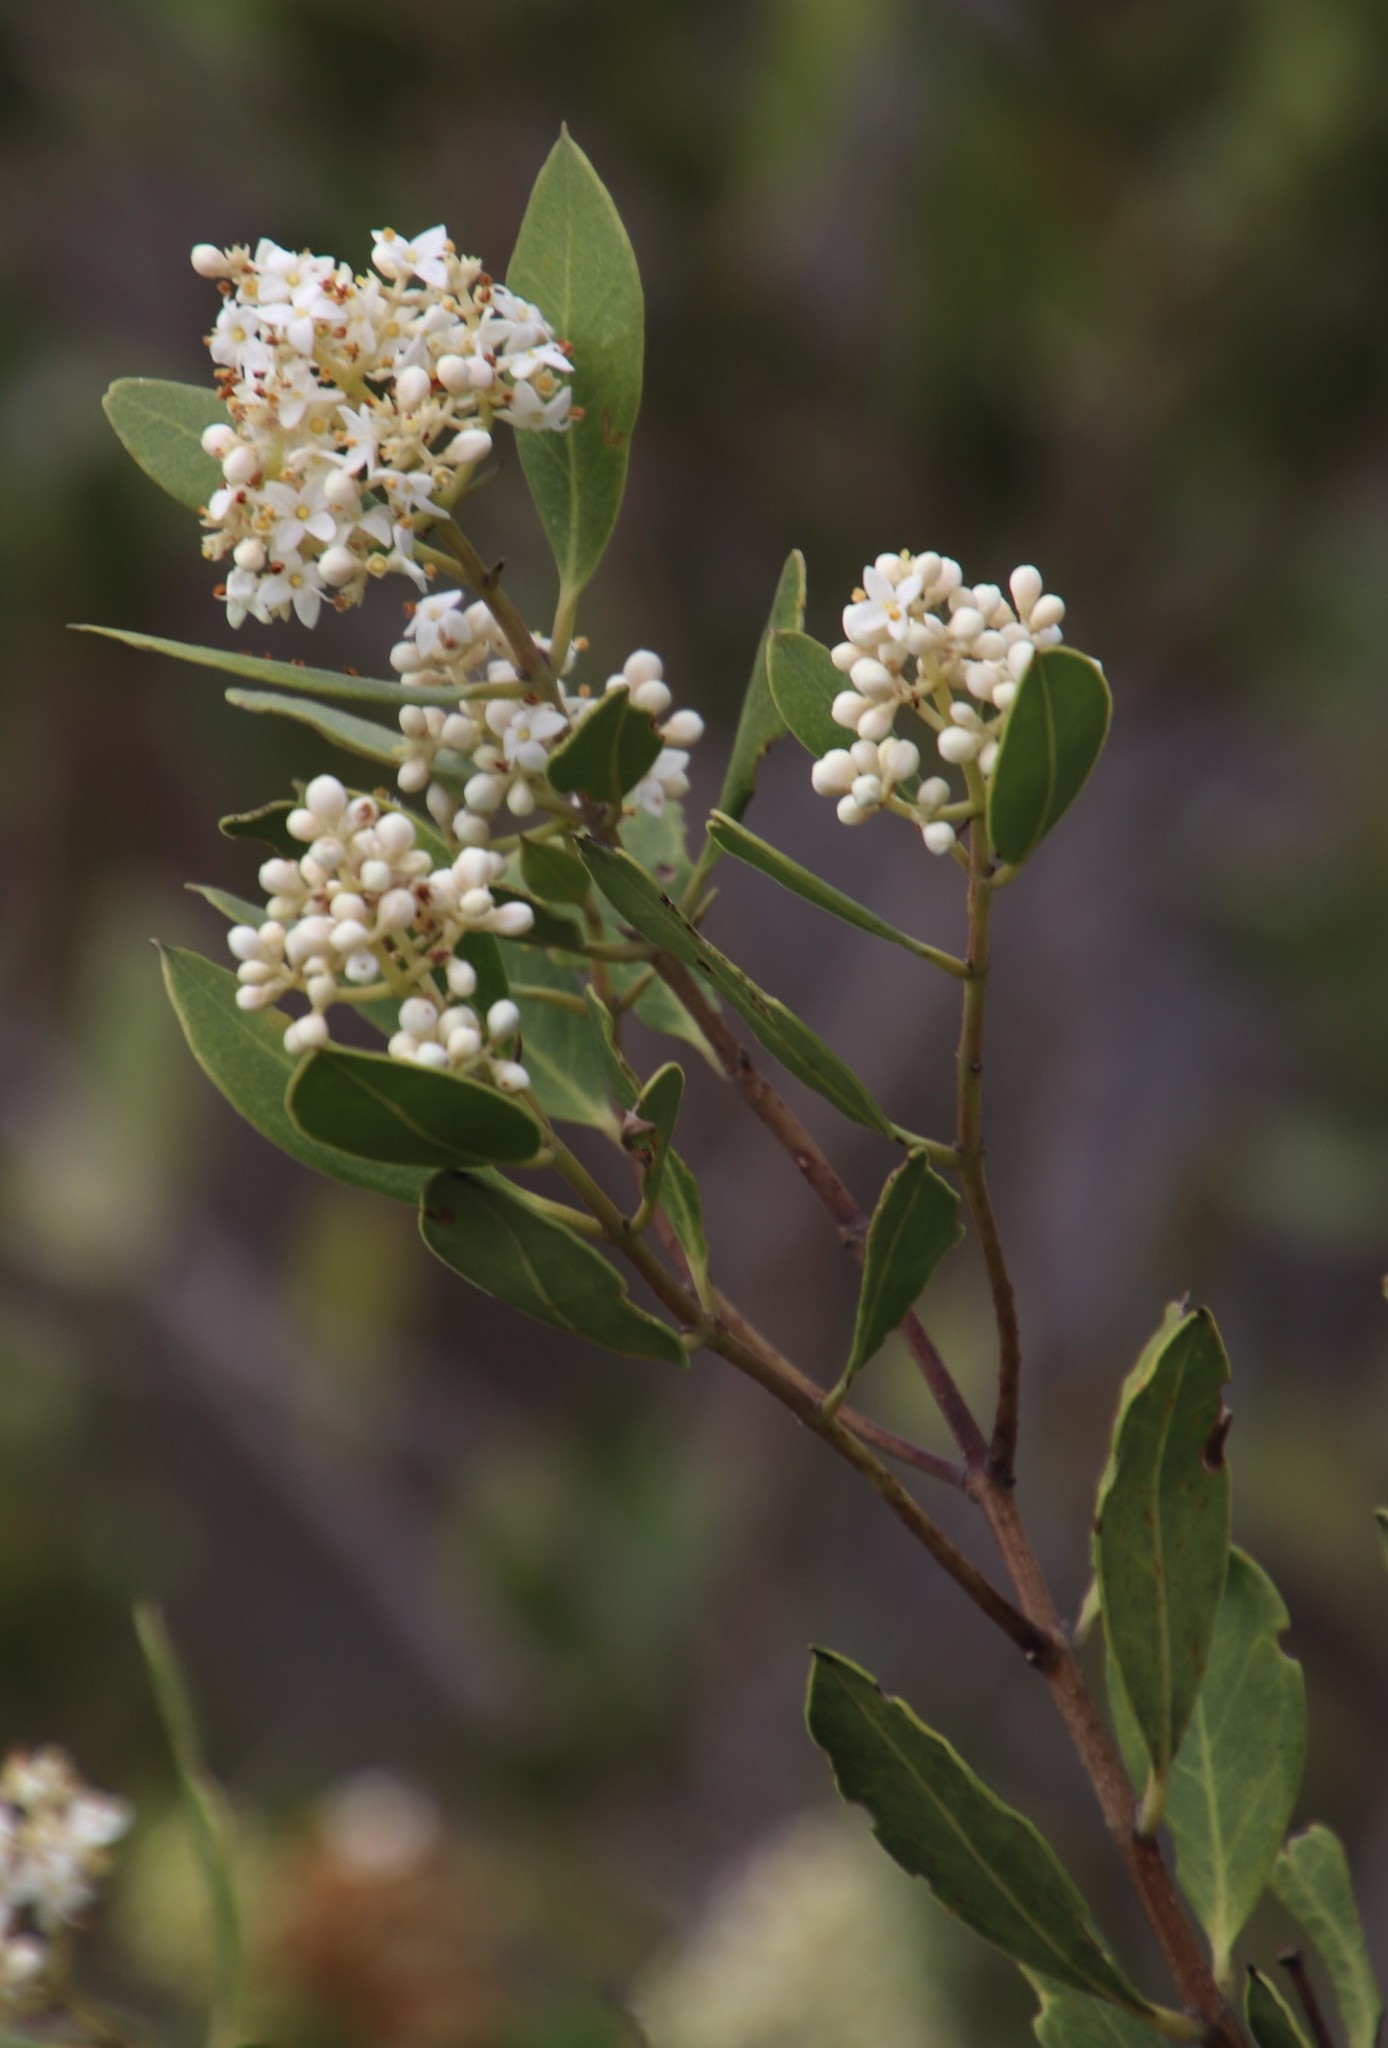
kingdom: Plantae
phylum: Tracheophyta
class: Magnoliopsida
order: Lamiales
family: Oleaceae
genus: Olea
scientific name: Olea capensis
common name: Black ironwood
